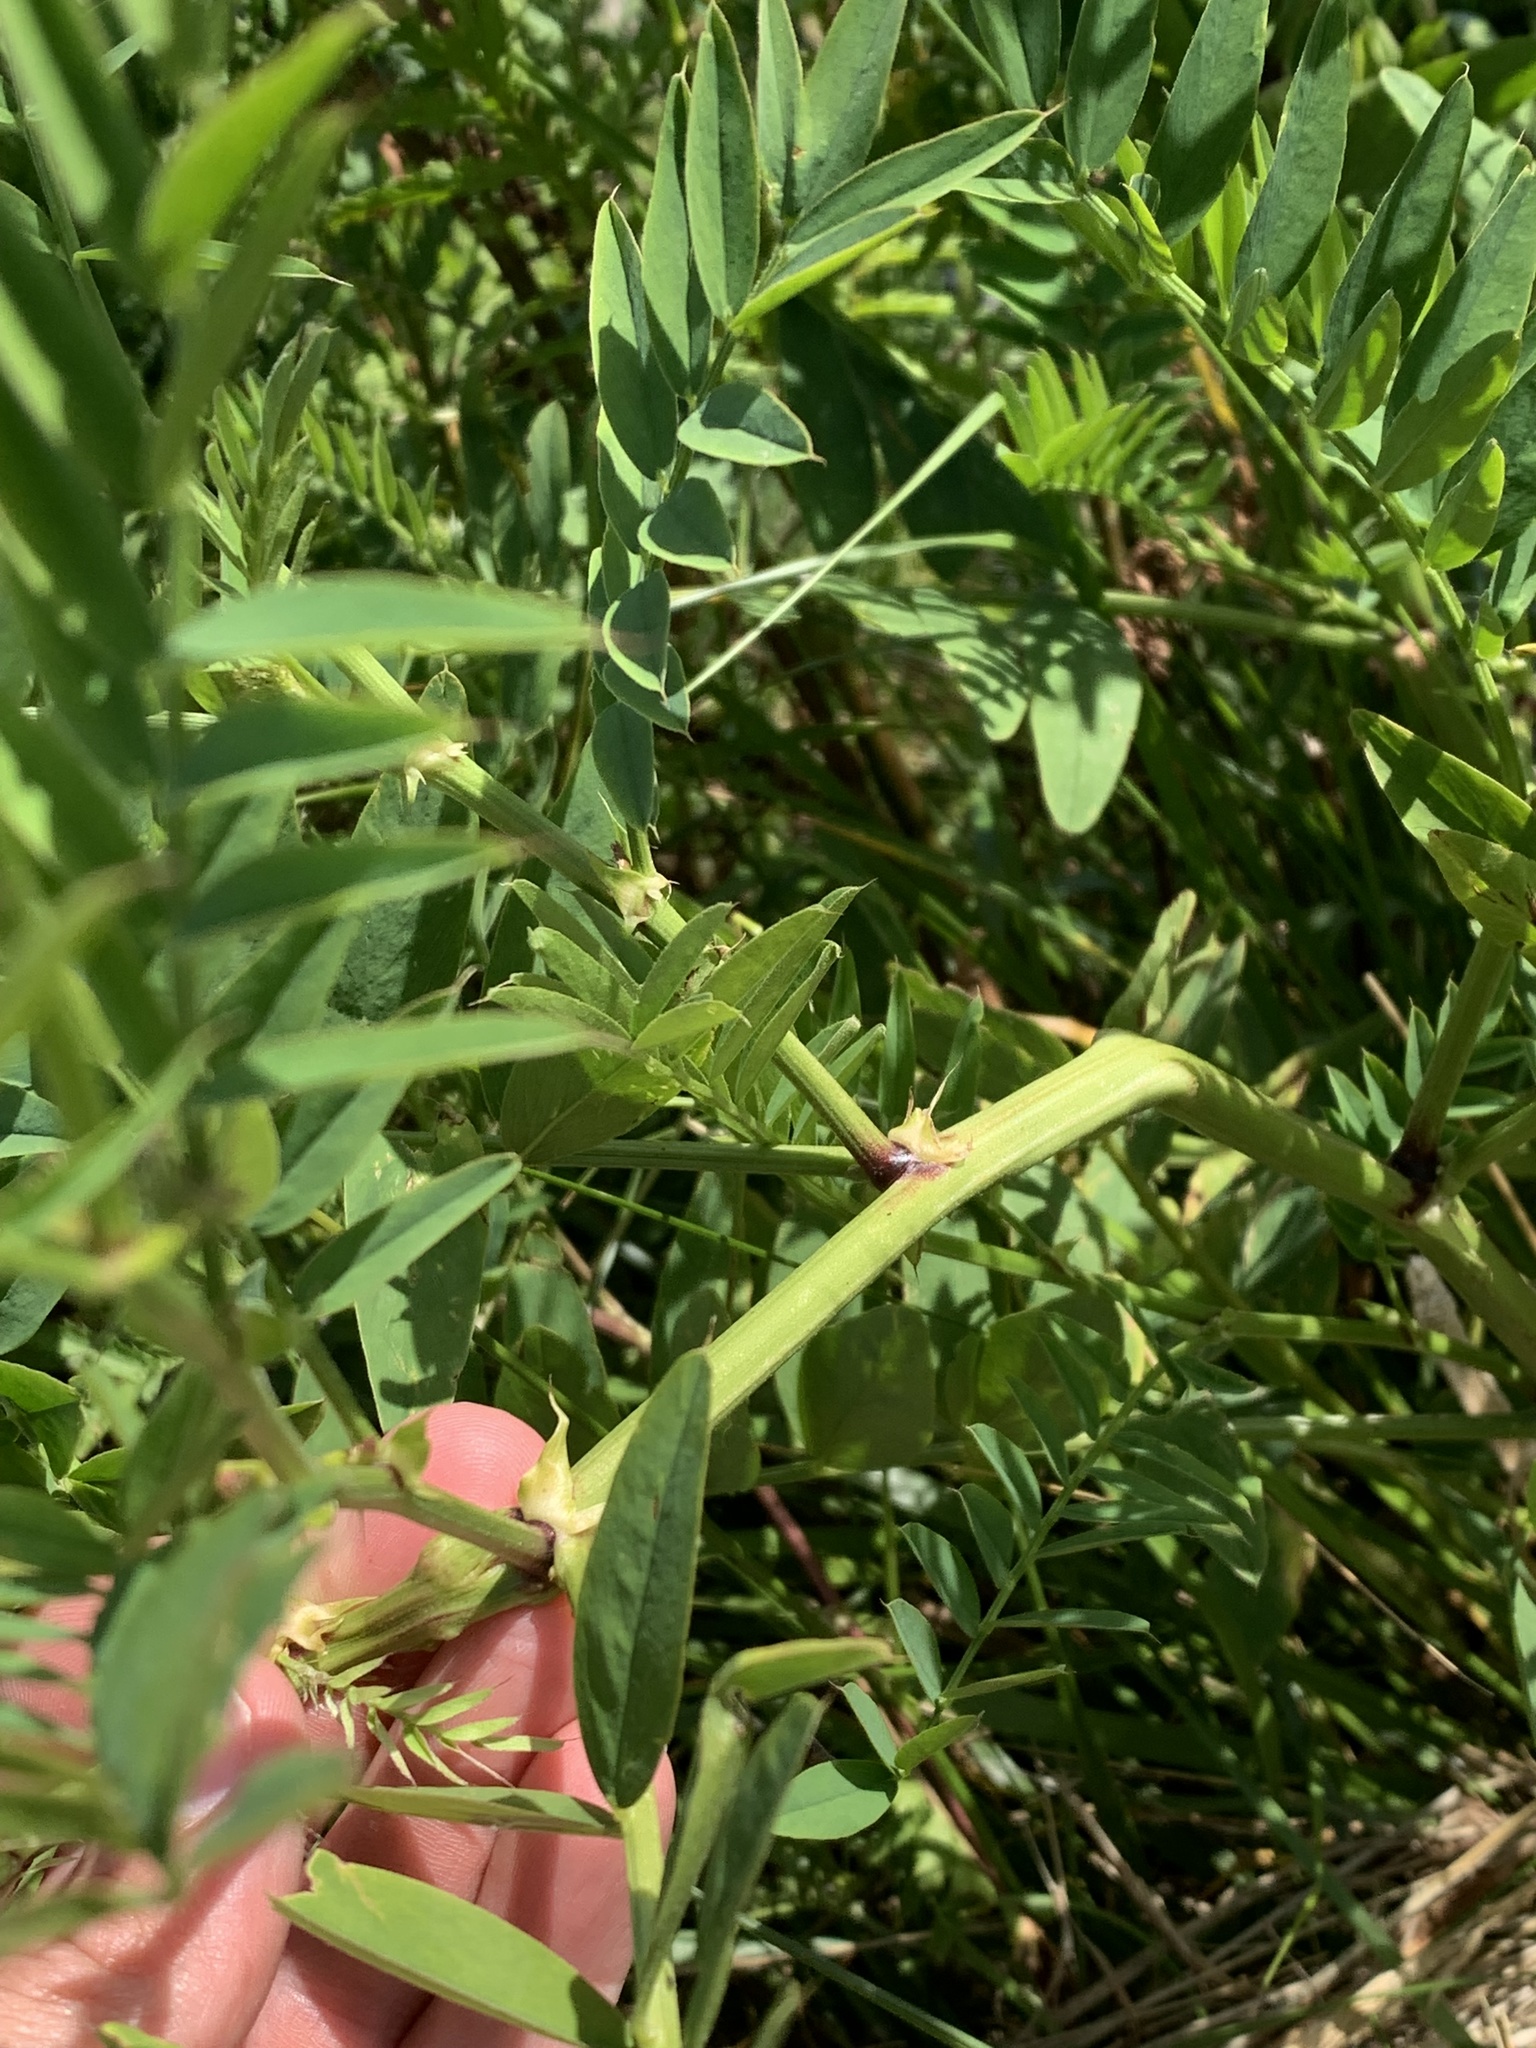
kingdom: Plantae
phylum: Tracheophyta
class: Magnoliopsida
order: Fabales
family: Fabaceae
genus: Galega
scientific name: Galega officinalis
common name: Goat's-rue
